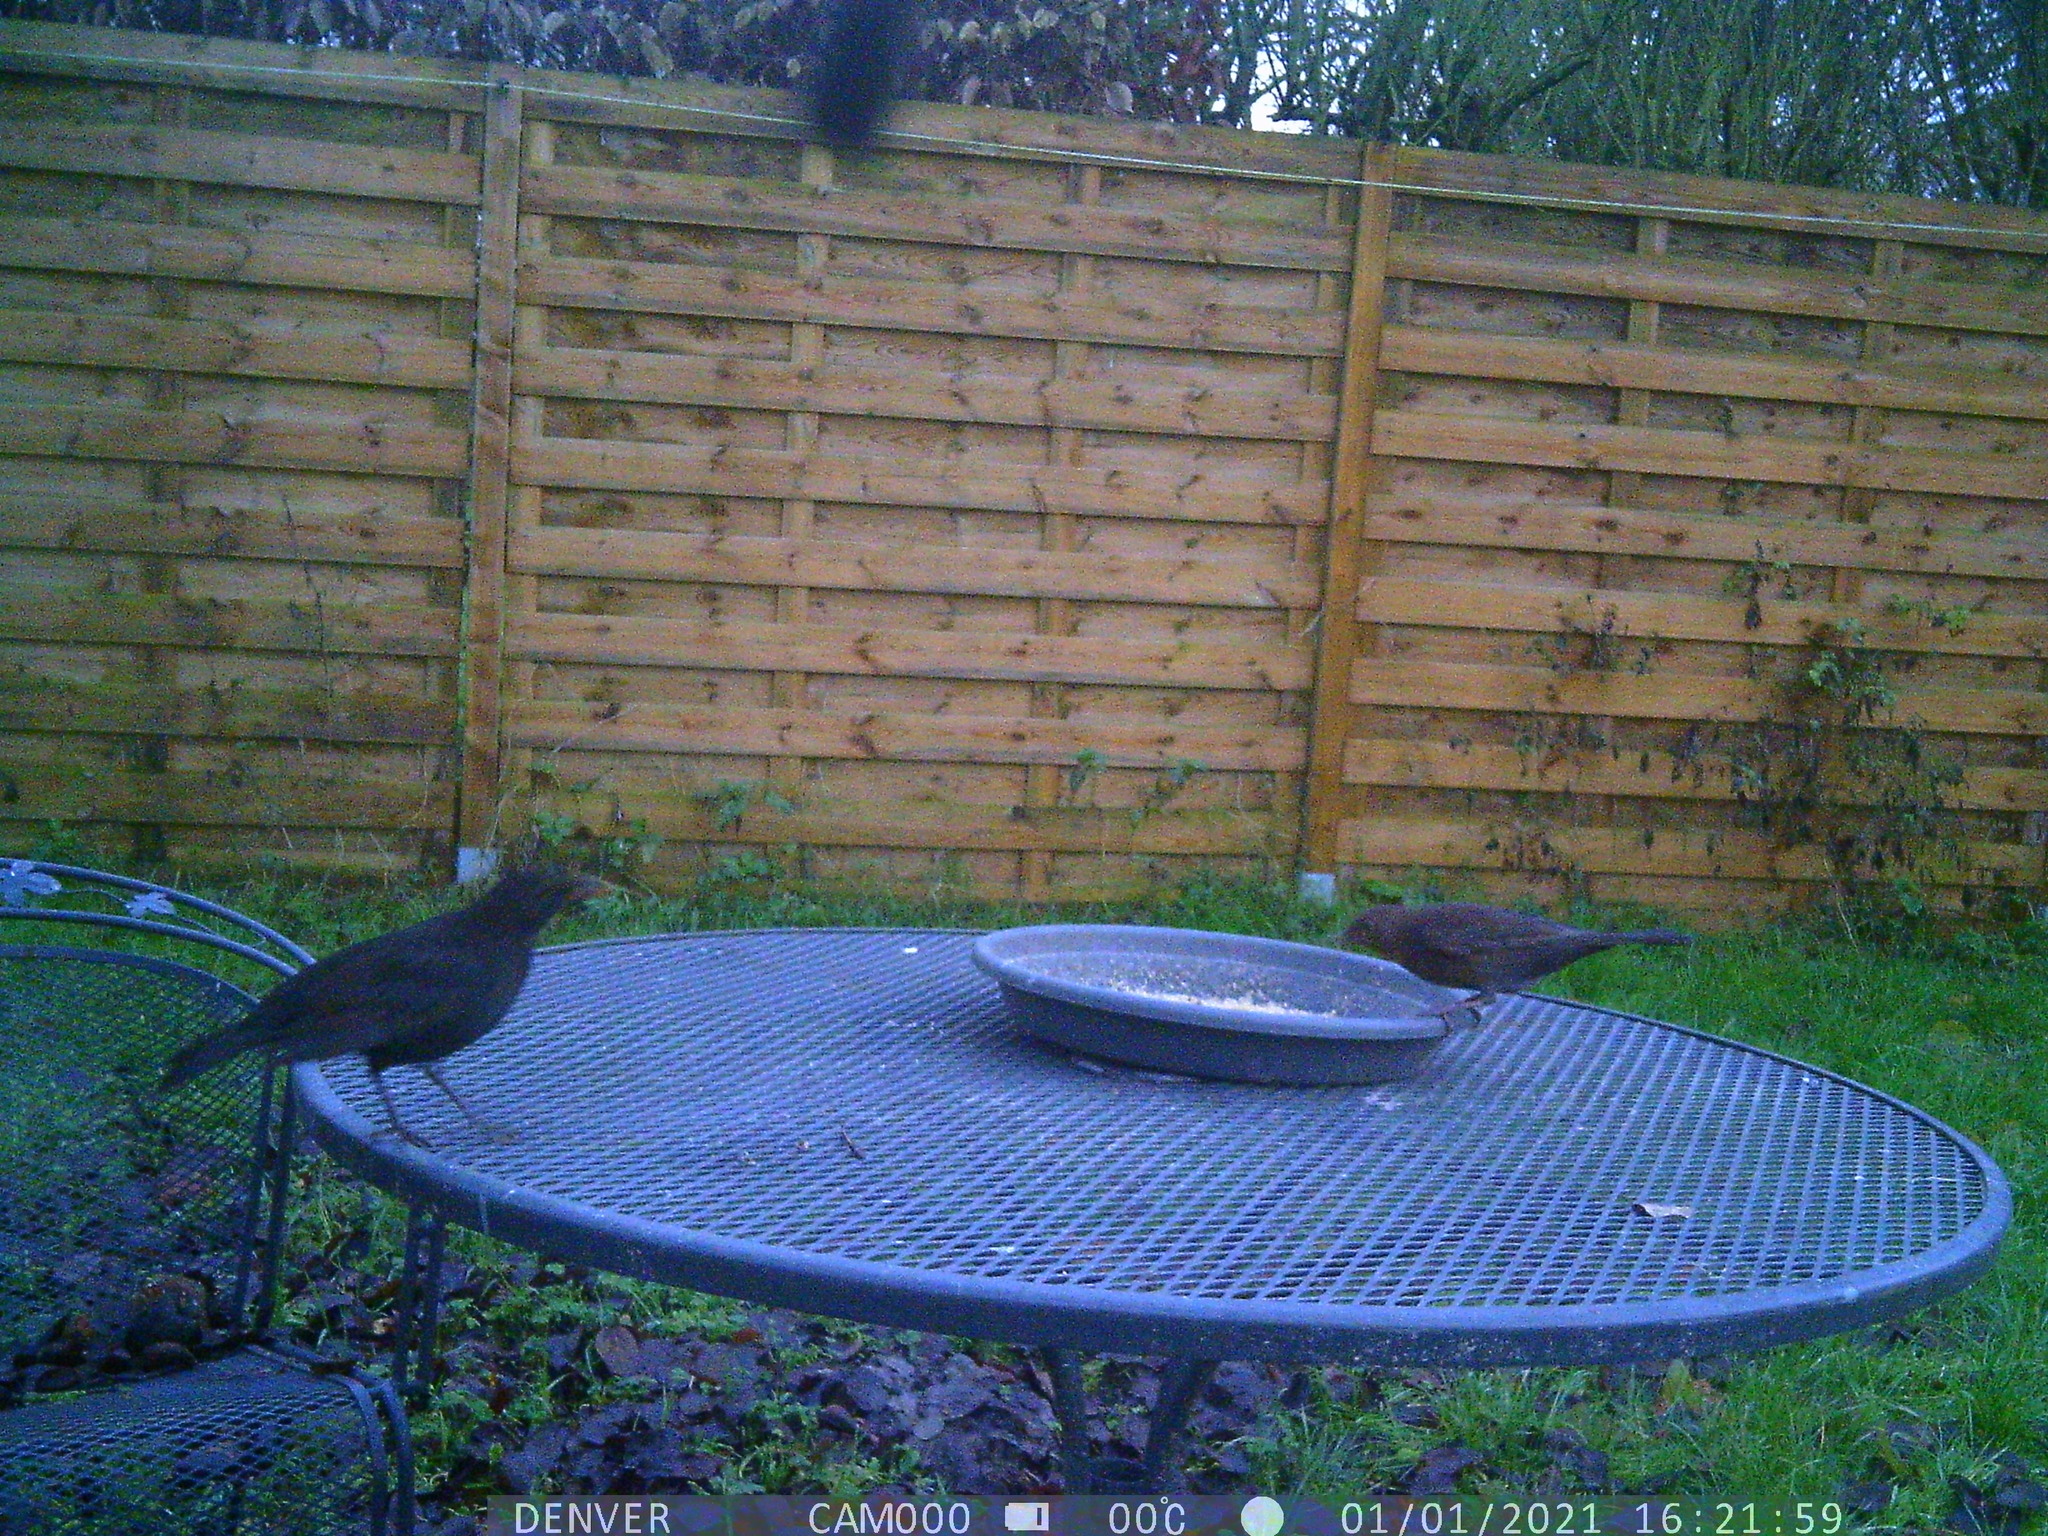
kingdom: Animalia
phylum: Chordata
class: Aves
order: Passeriformes
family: Turdidae
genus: Turdus
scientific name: Turdus merula
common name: Common blackbird
